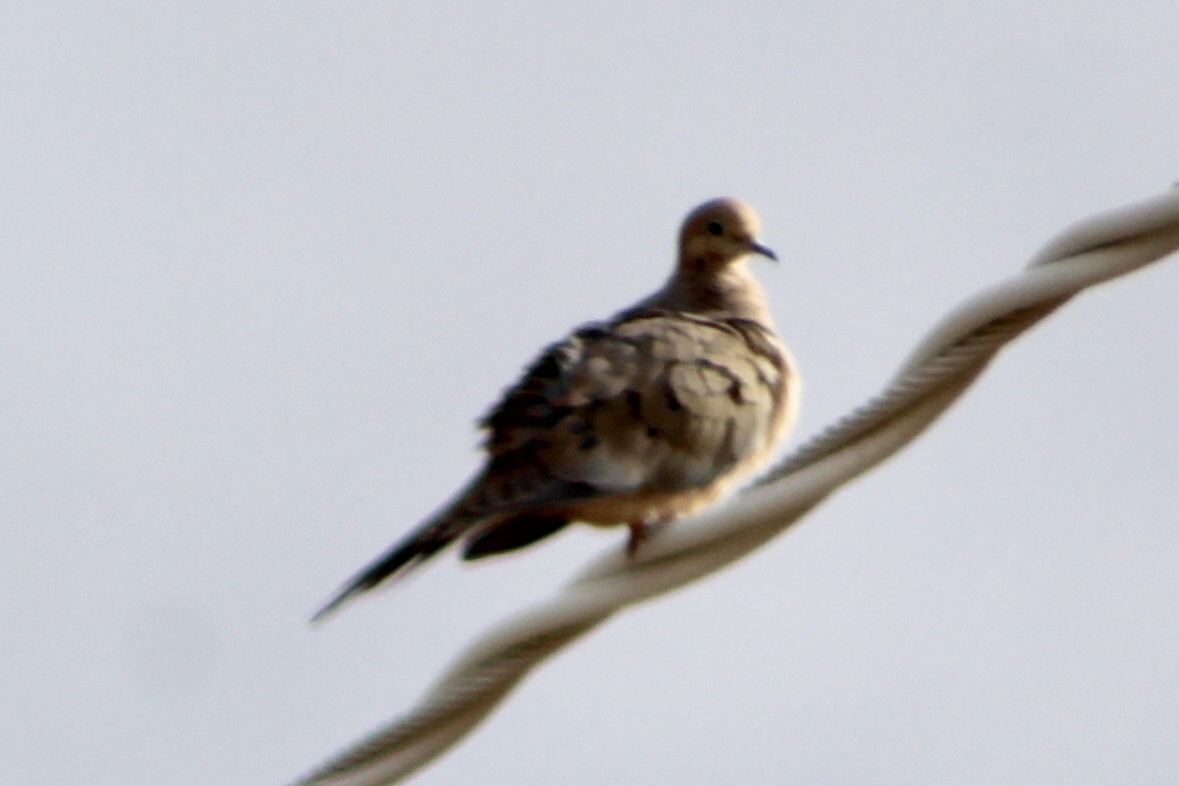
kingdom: Animalia
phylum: Chordata
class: Aves
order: Columbiformes
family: Columbidae
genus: Zenaida
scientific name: Zenaida macroura
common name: Mourning dove
